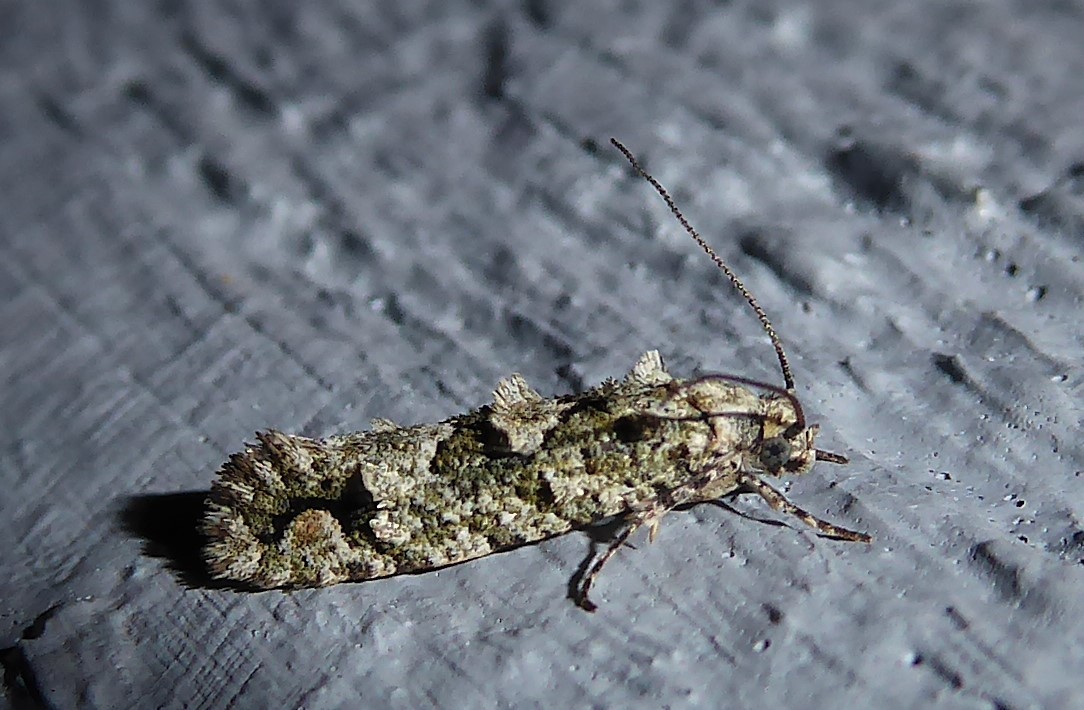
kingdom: Animalia
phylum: Arthropoda
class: Insecta
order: Lepidoptera
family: Tineidae
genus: Lysiphragma
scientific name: Lysiphragma howesii
